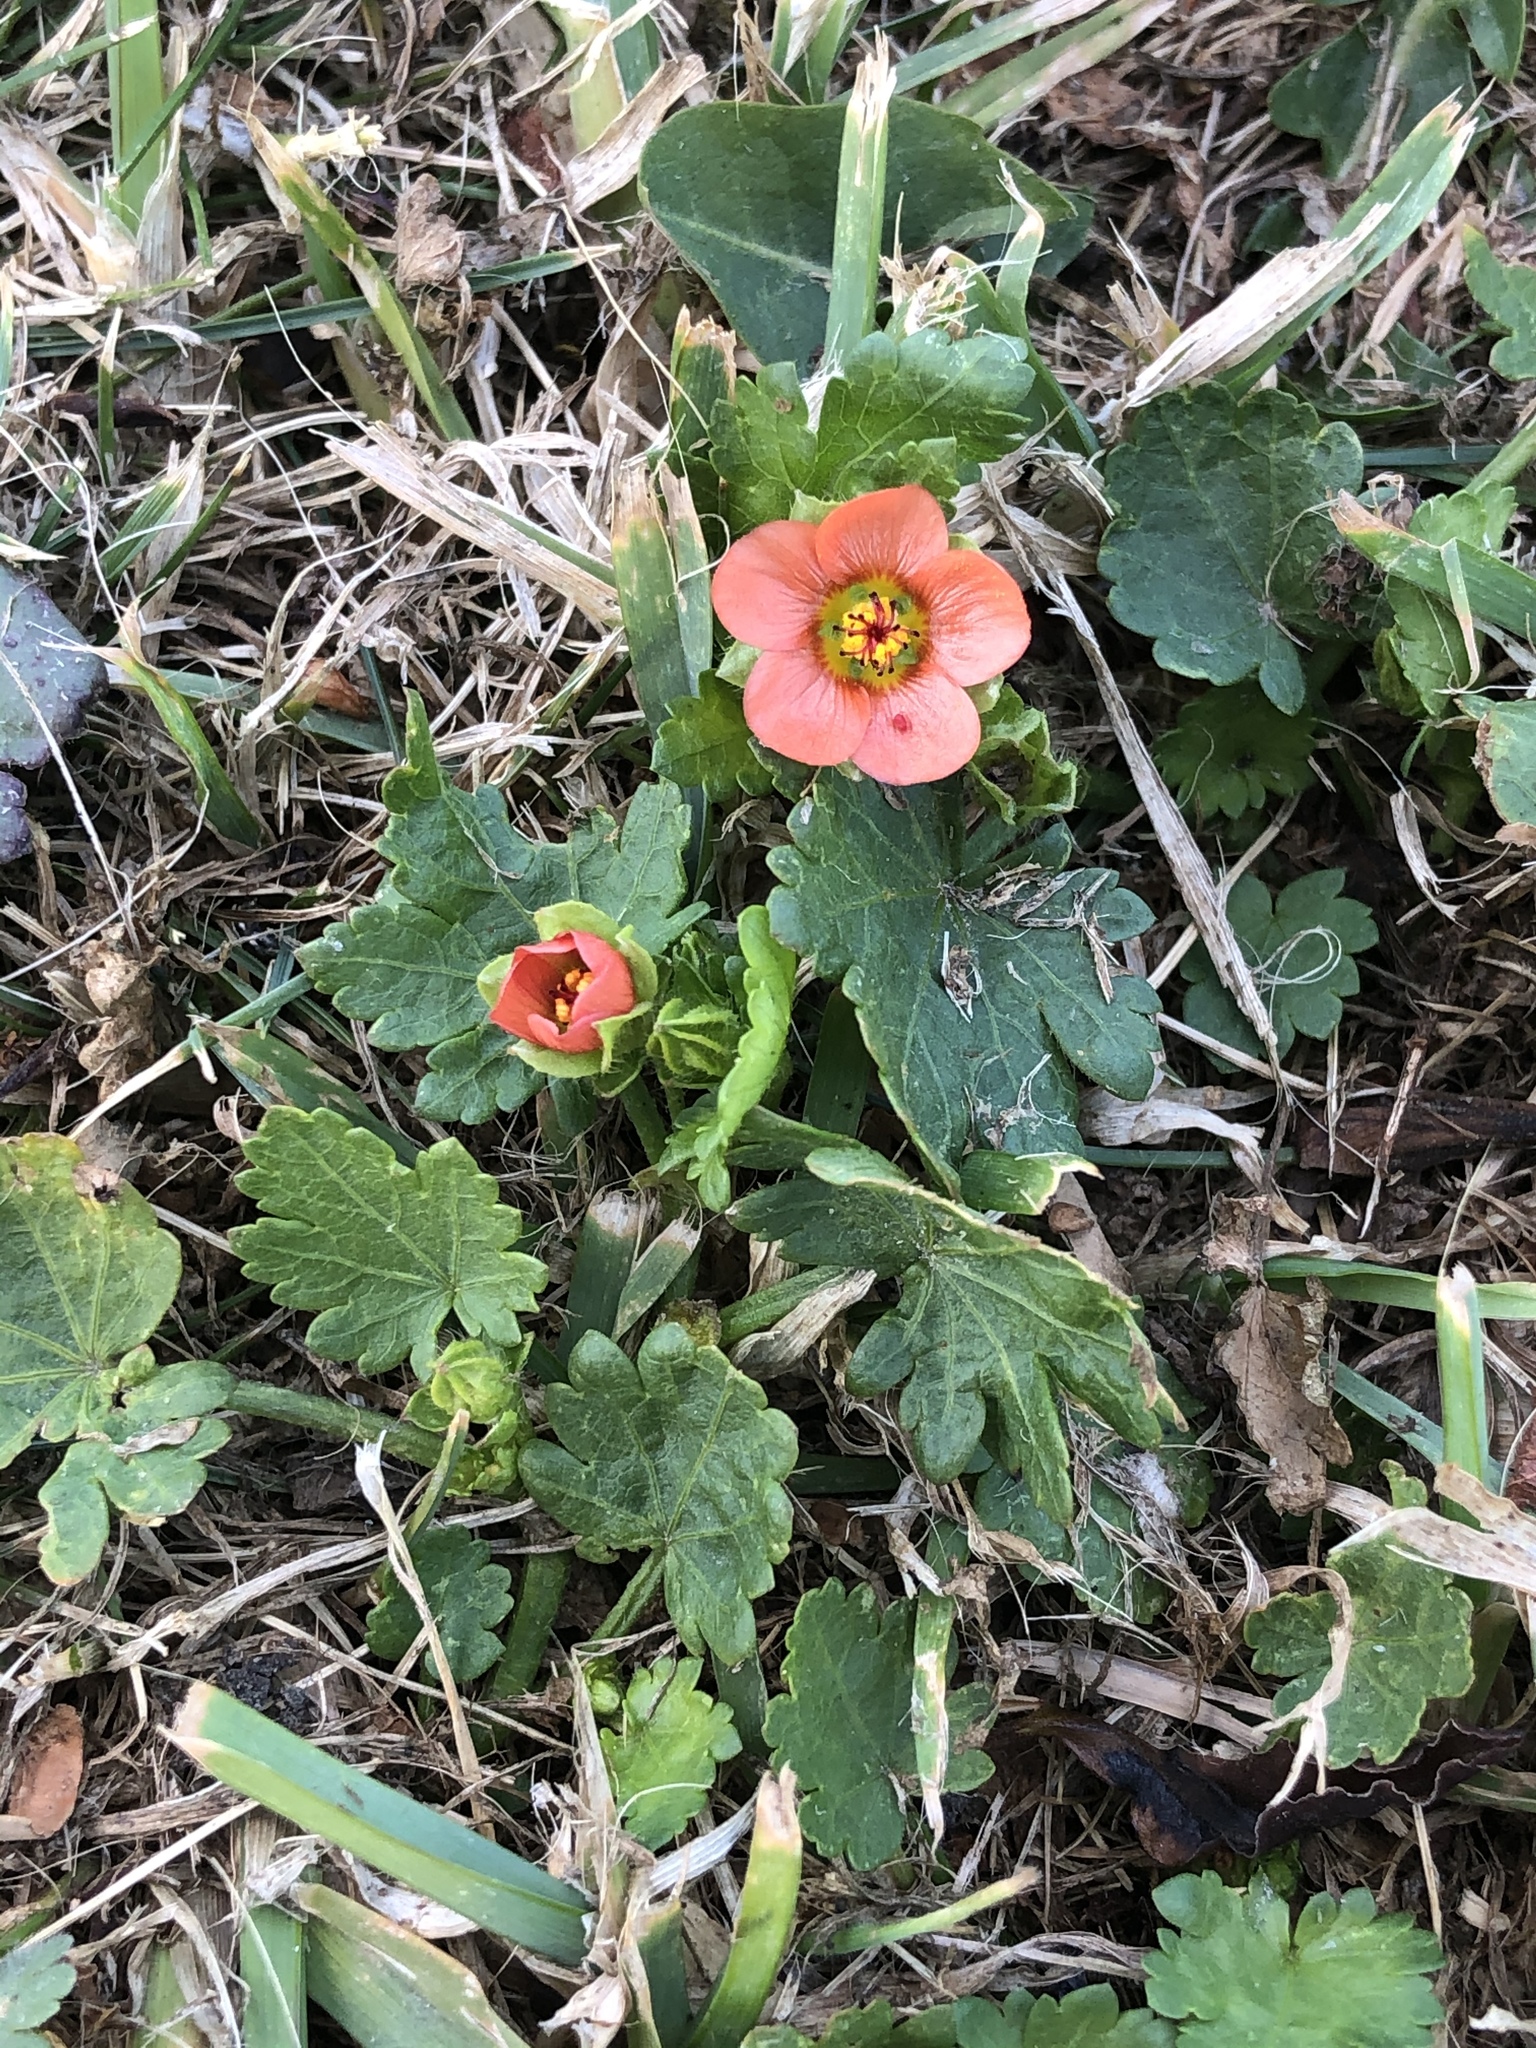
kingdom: Plantae
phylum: Tracheophyta
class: Magnoliopsida
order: Malvales
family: Malvaceae
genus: Modiola
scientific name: Modiola caroliniana
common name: Carolina bristlemallow
